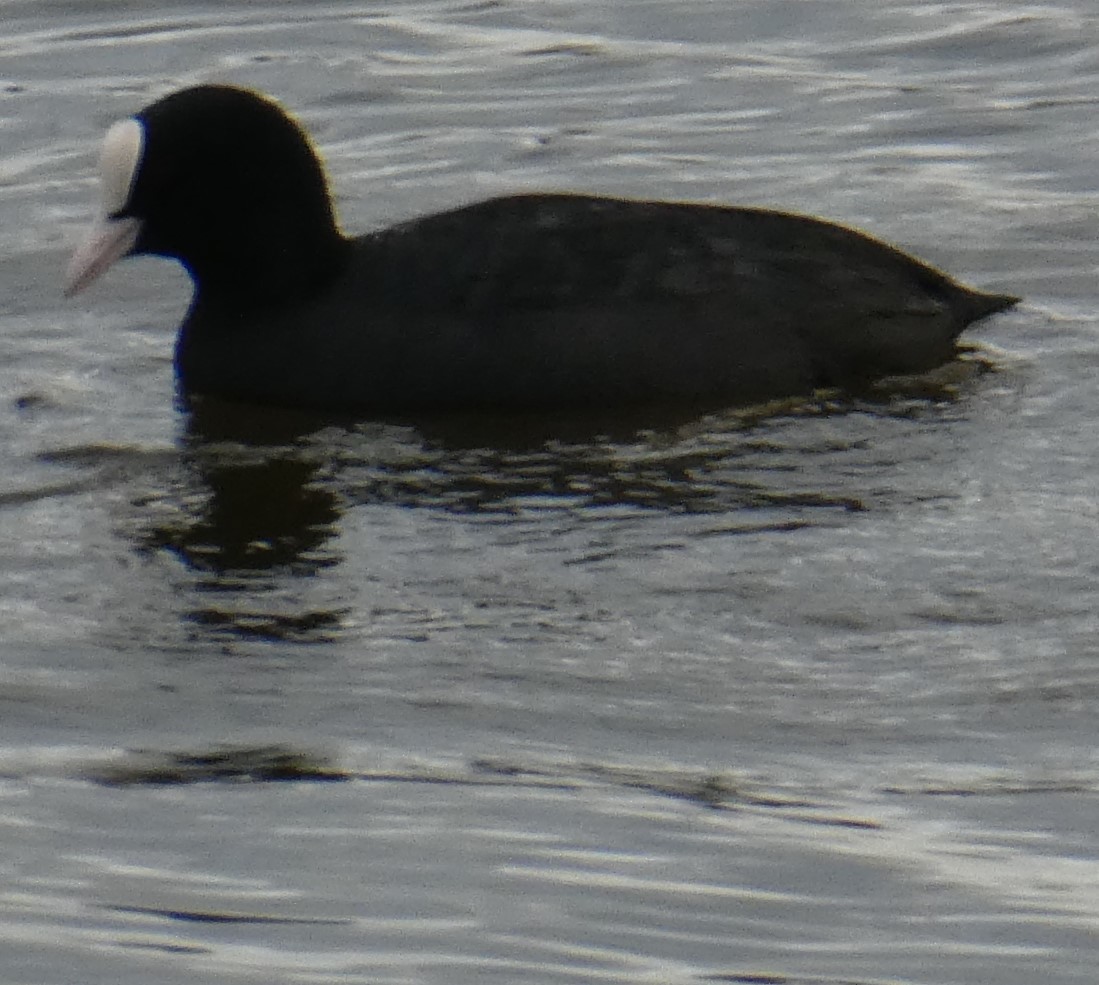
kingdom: Animalia
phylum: Chordata
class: Aves
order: Gruiformes
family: Rallidae
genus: Fulica
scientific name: Fulica atra
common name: Eurasian coot
